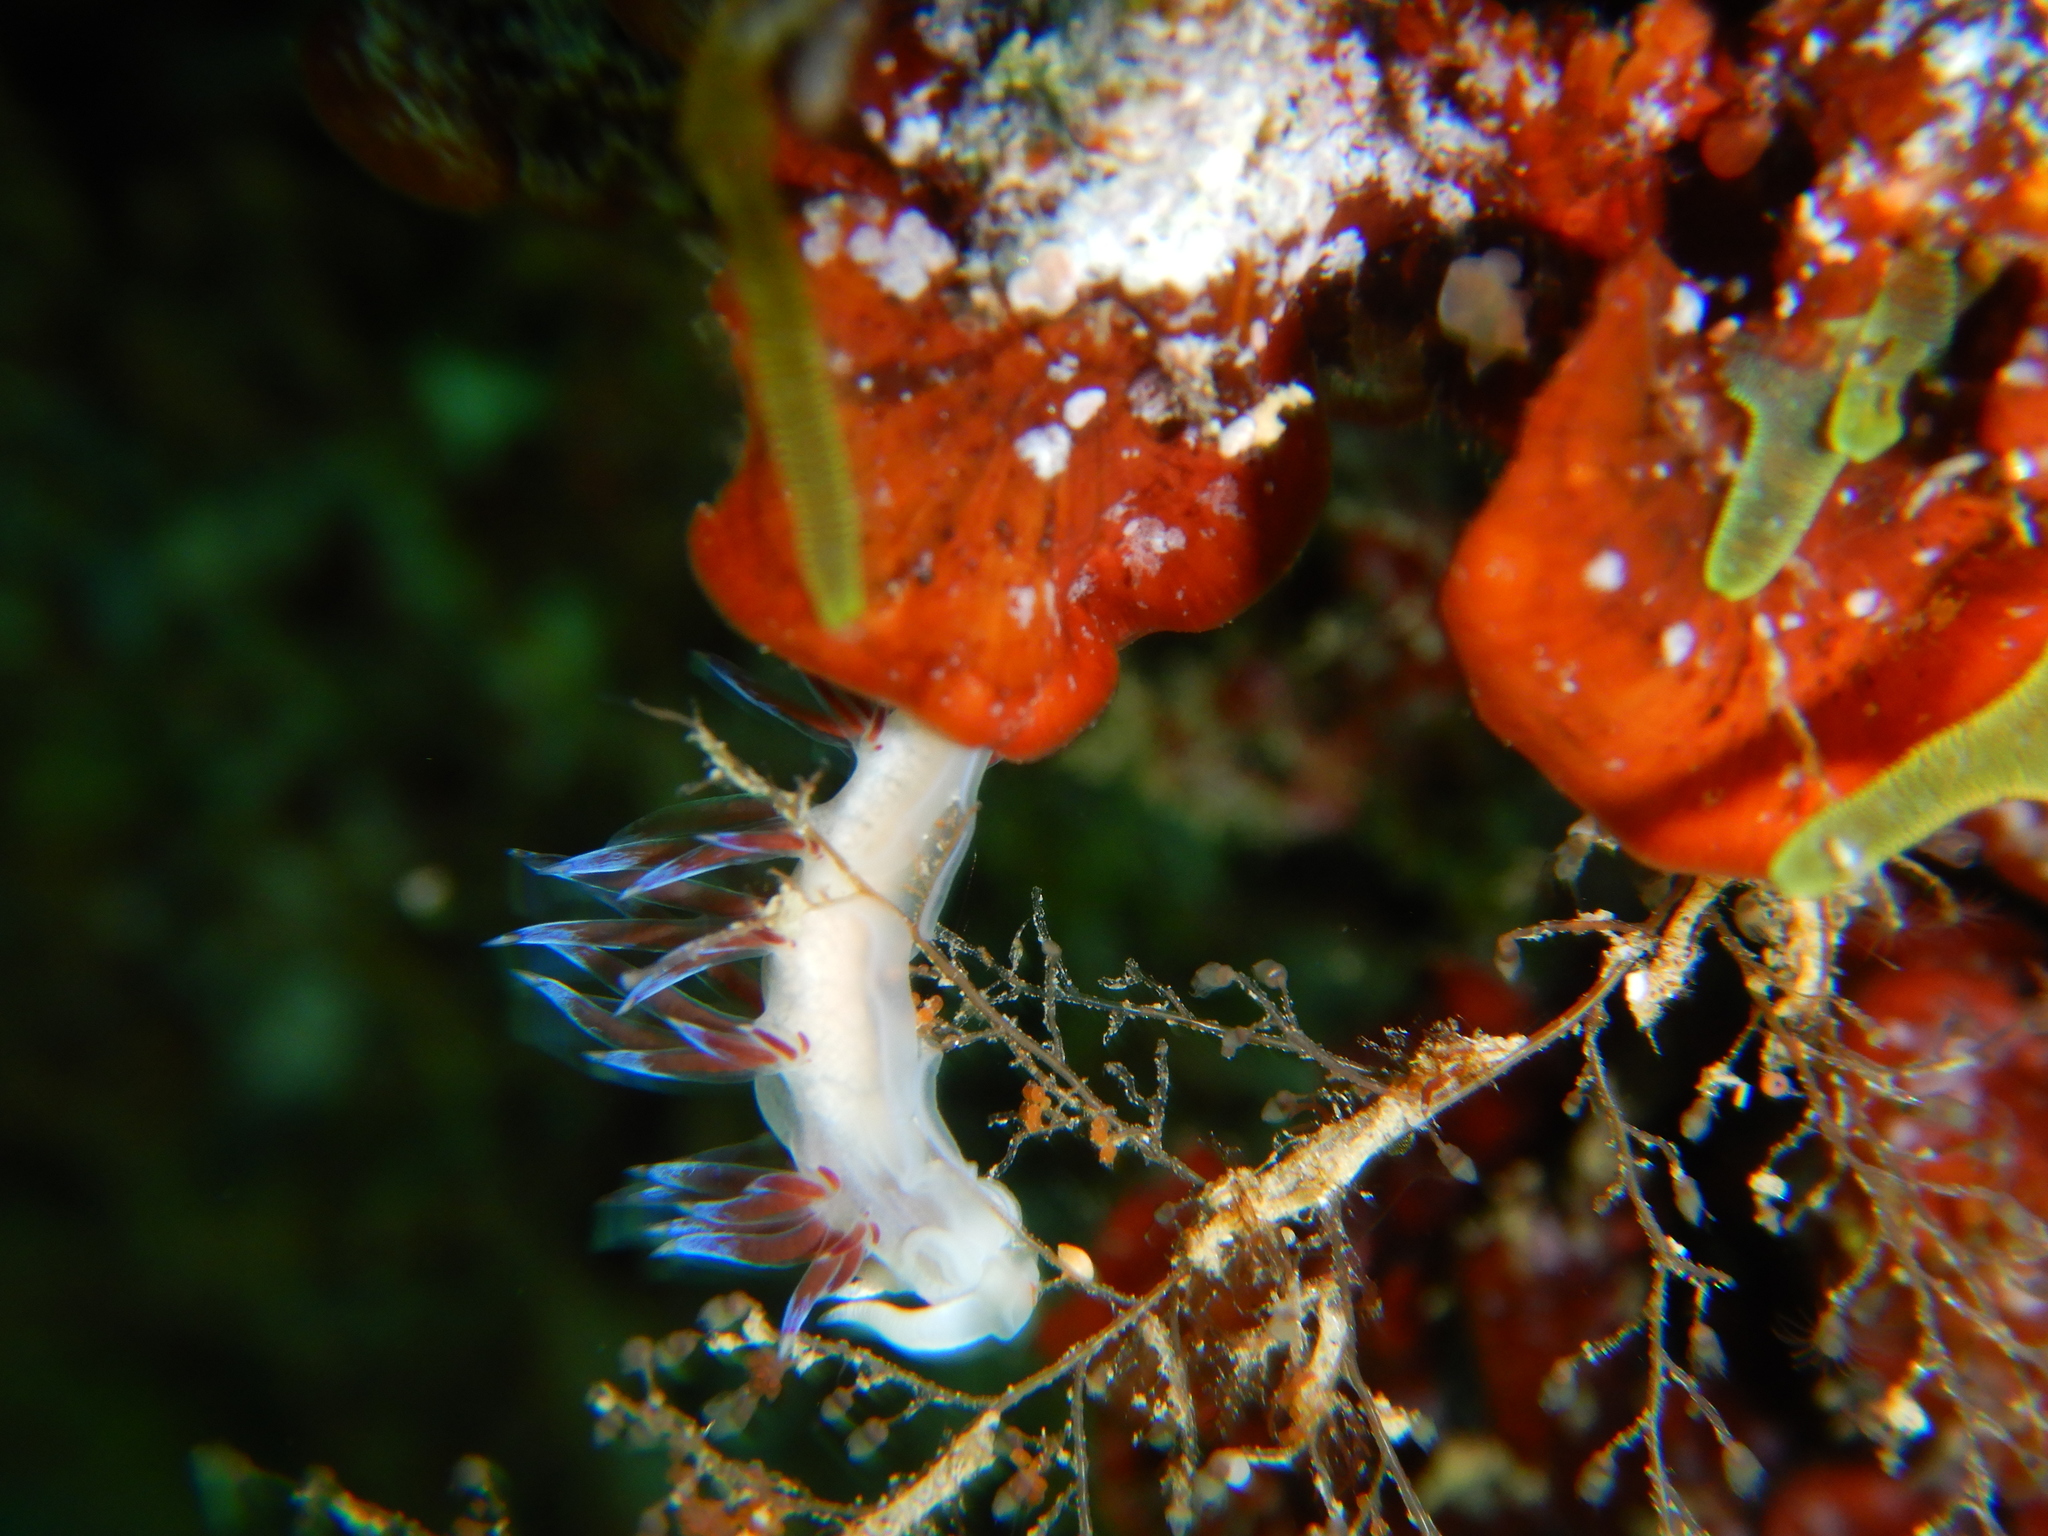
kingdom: Animalia
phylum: Mollusca
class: Gastropoda
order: Nudibranchia
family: Facelinidae
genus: Cratena
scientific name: Cratena peregrina
